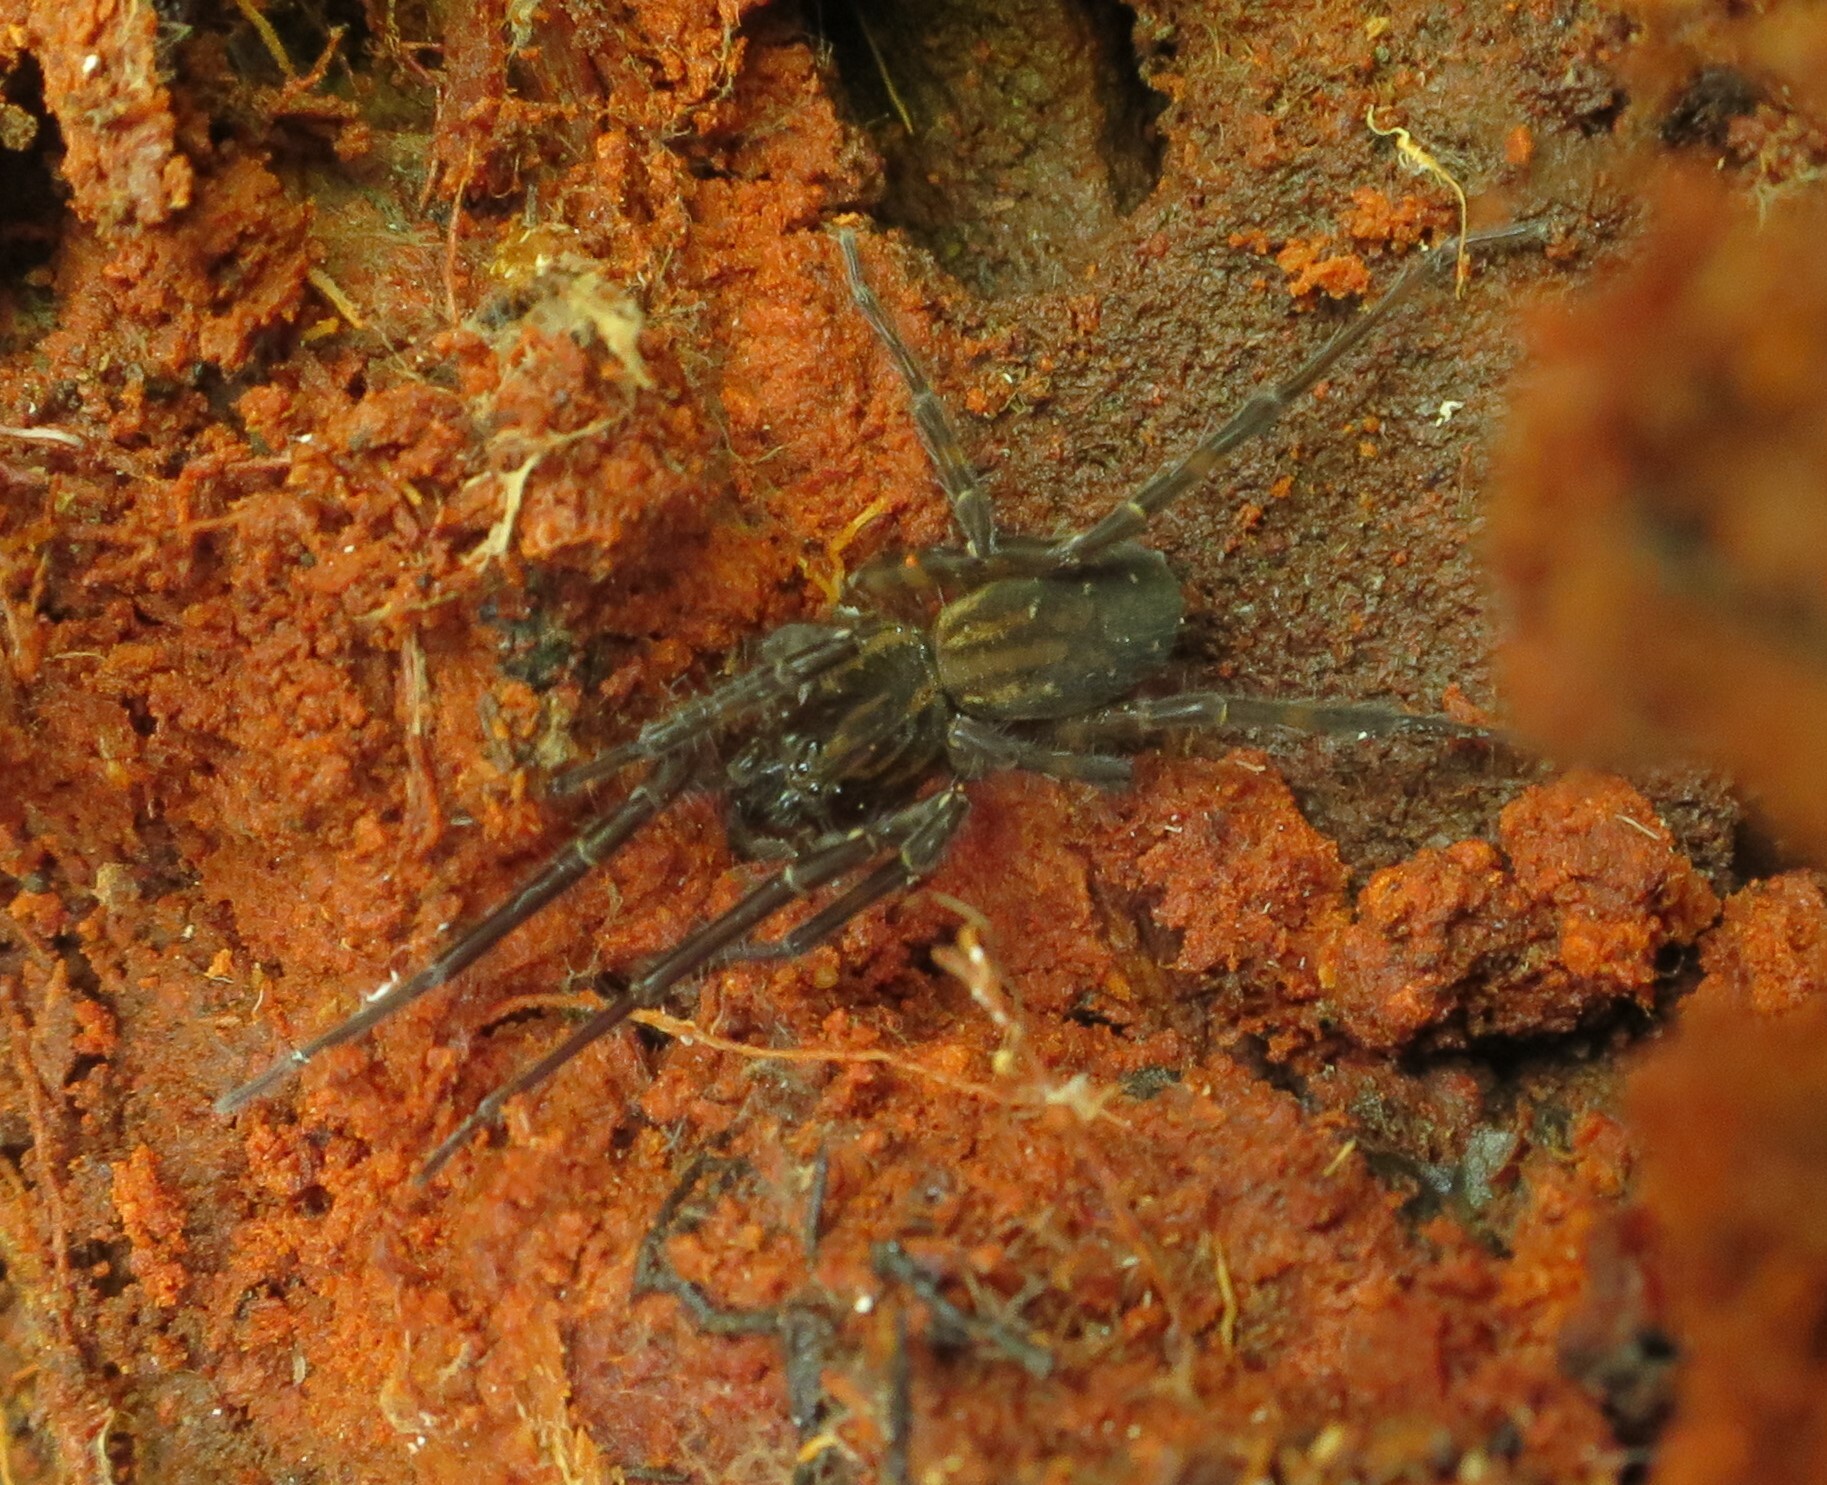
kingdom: Animalia
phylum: Arthropoda
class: Arachnida
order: Araneae
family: Lycosidae
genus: Allotrochosina
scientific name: Allotrochosina schauinslandi
